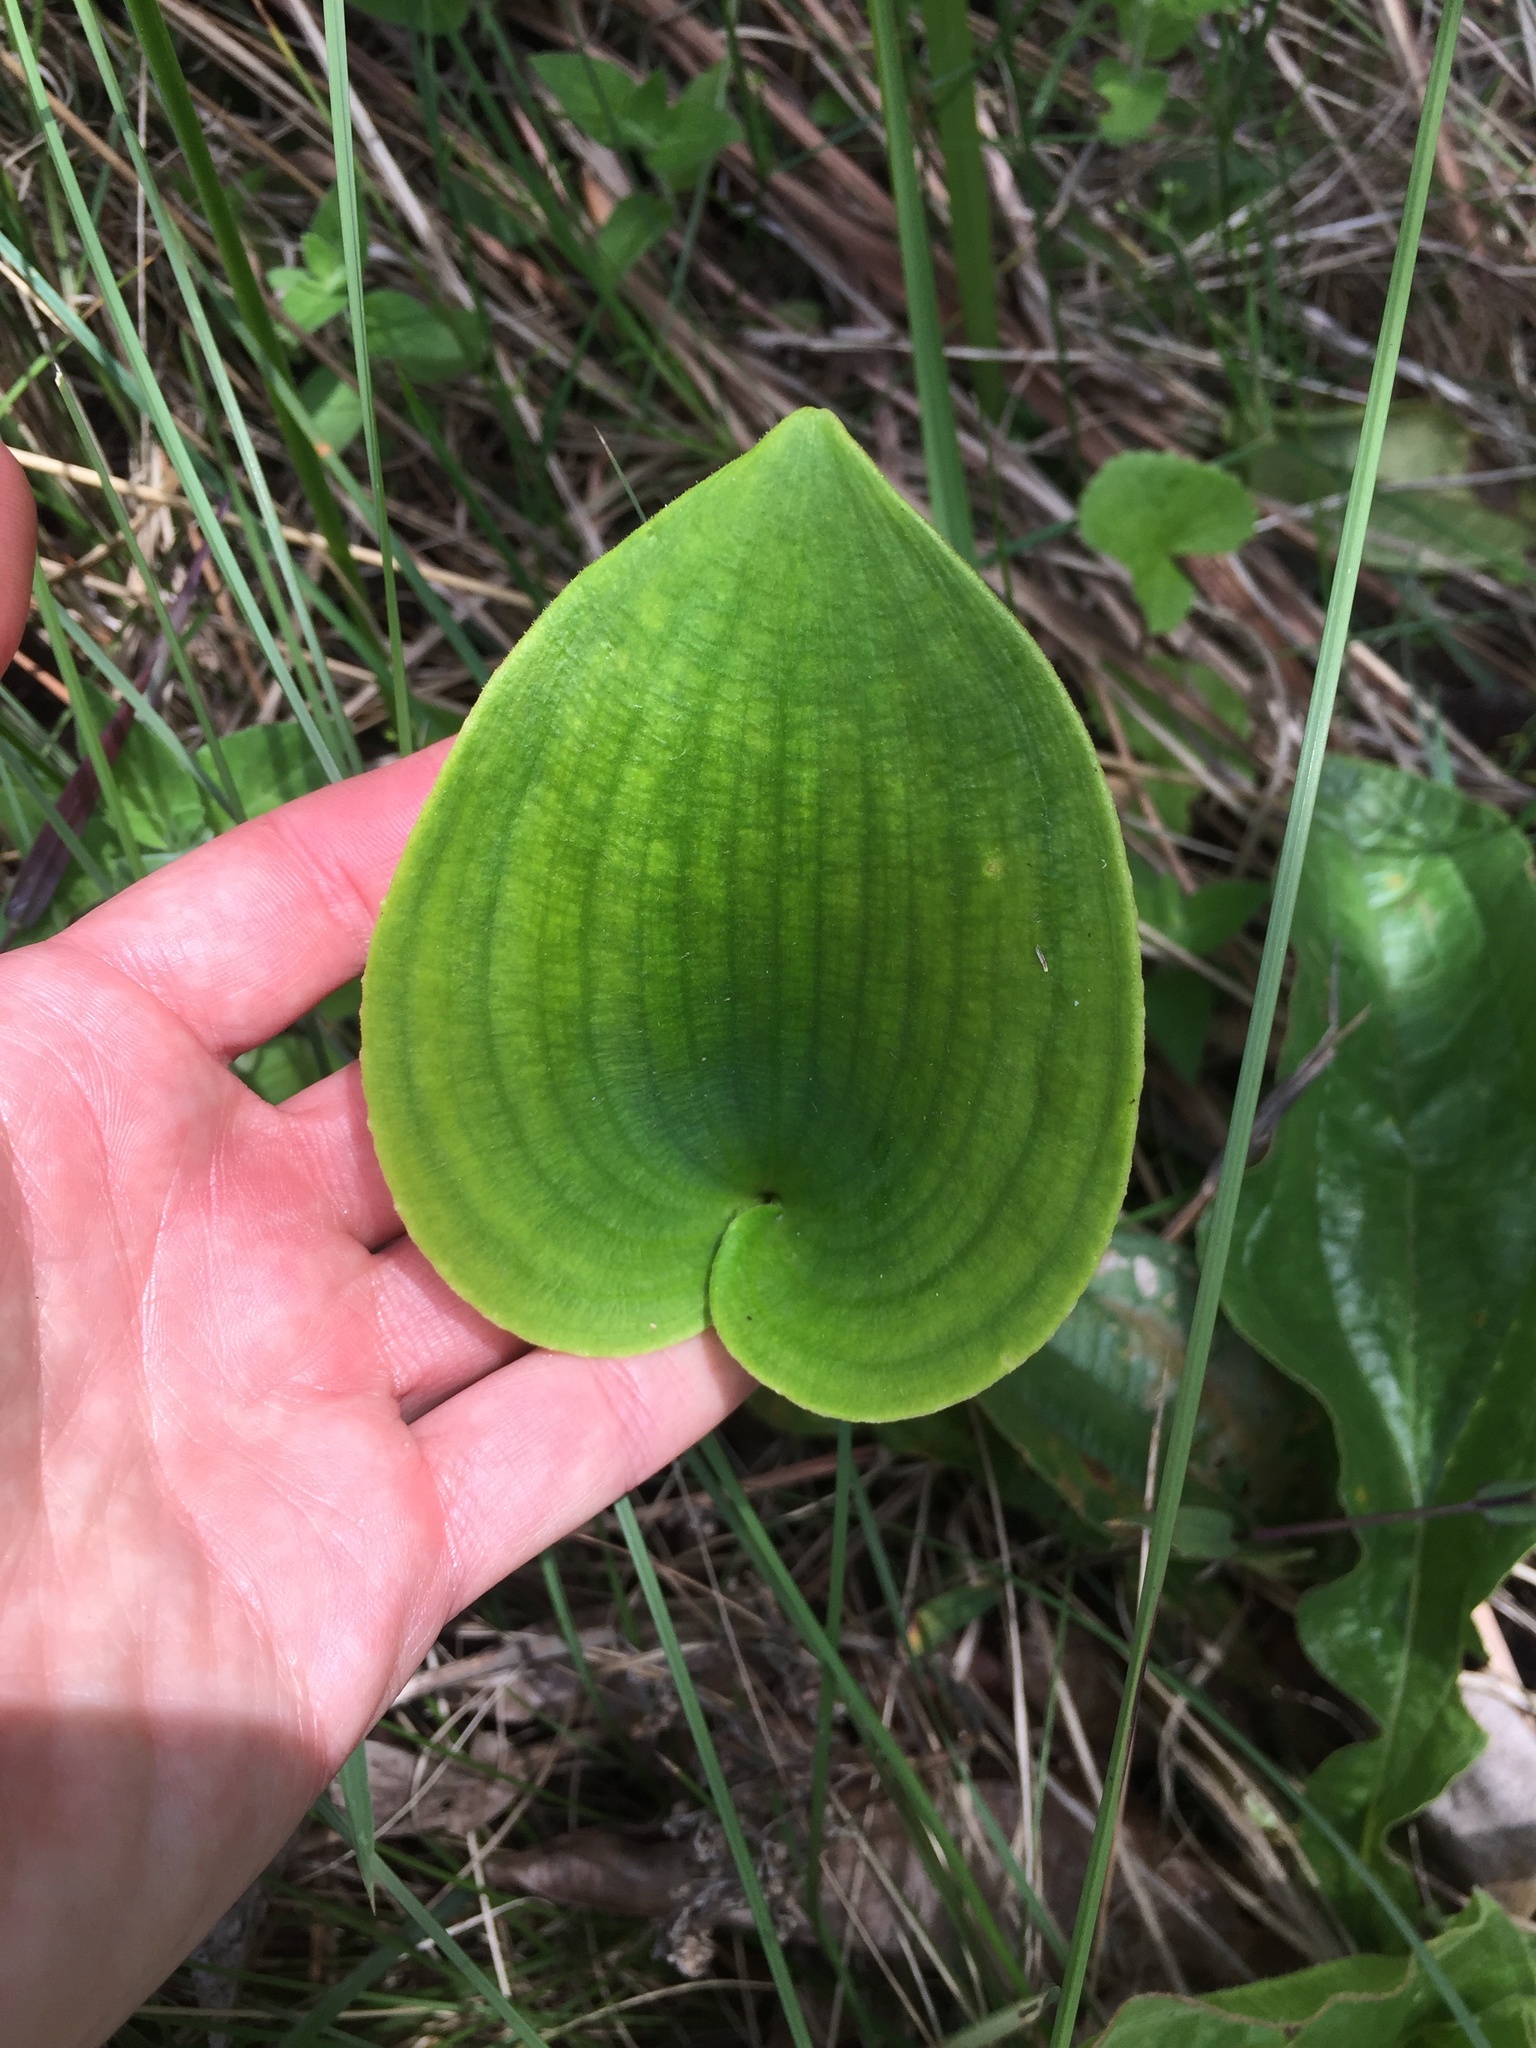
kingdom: Plantae
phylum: Tracheophyta
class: Liliopsida
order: Asparagales
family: Asparagaceae
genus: Eriospermum
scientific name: Eriospermum ornithogaloides
